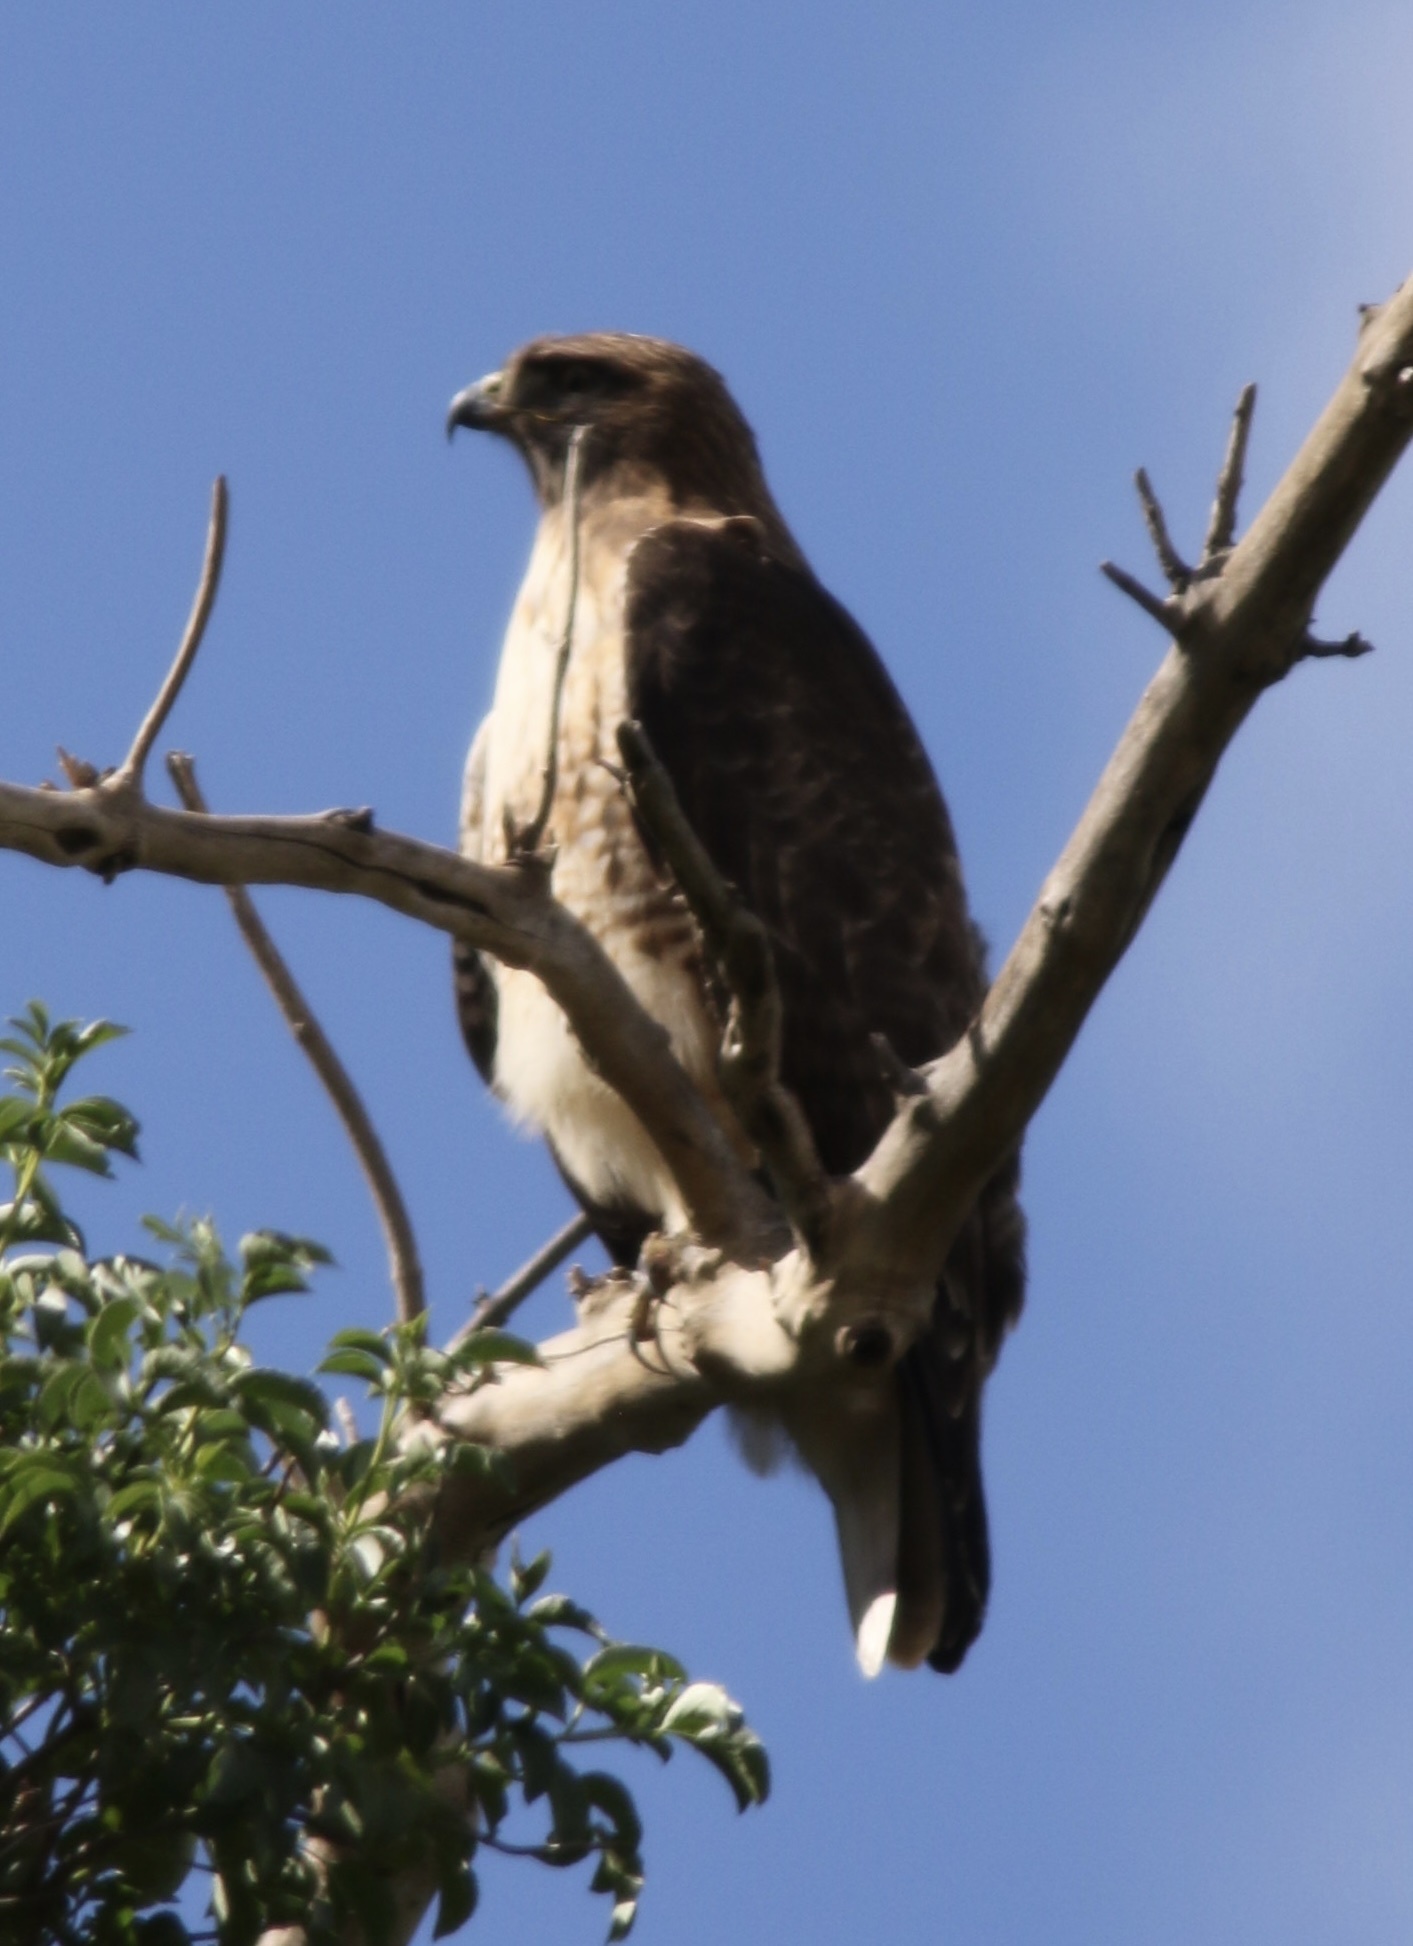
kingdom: Animalia
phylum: Chordata
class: Aves
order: Accipitriformes
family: Accipitridae
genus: Buteo
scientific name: Buteo jamaicensis
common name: Red-tailed hawk
